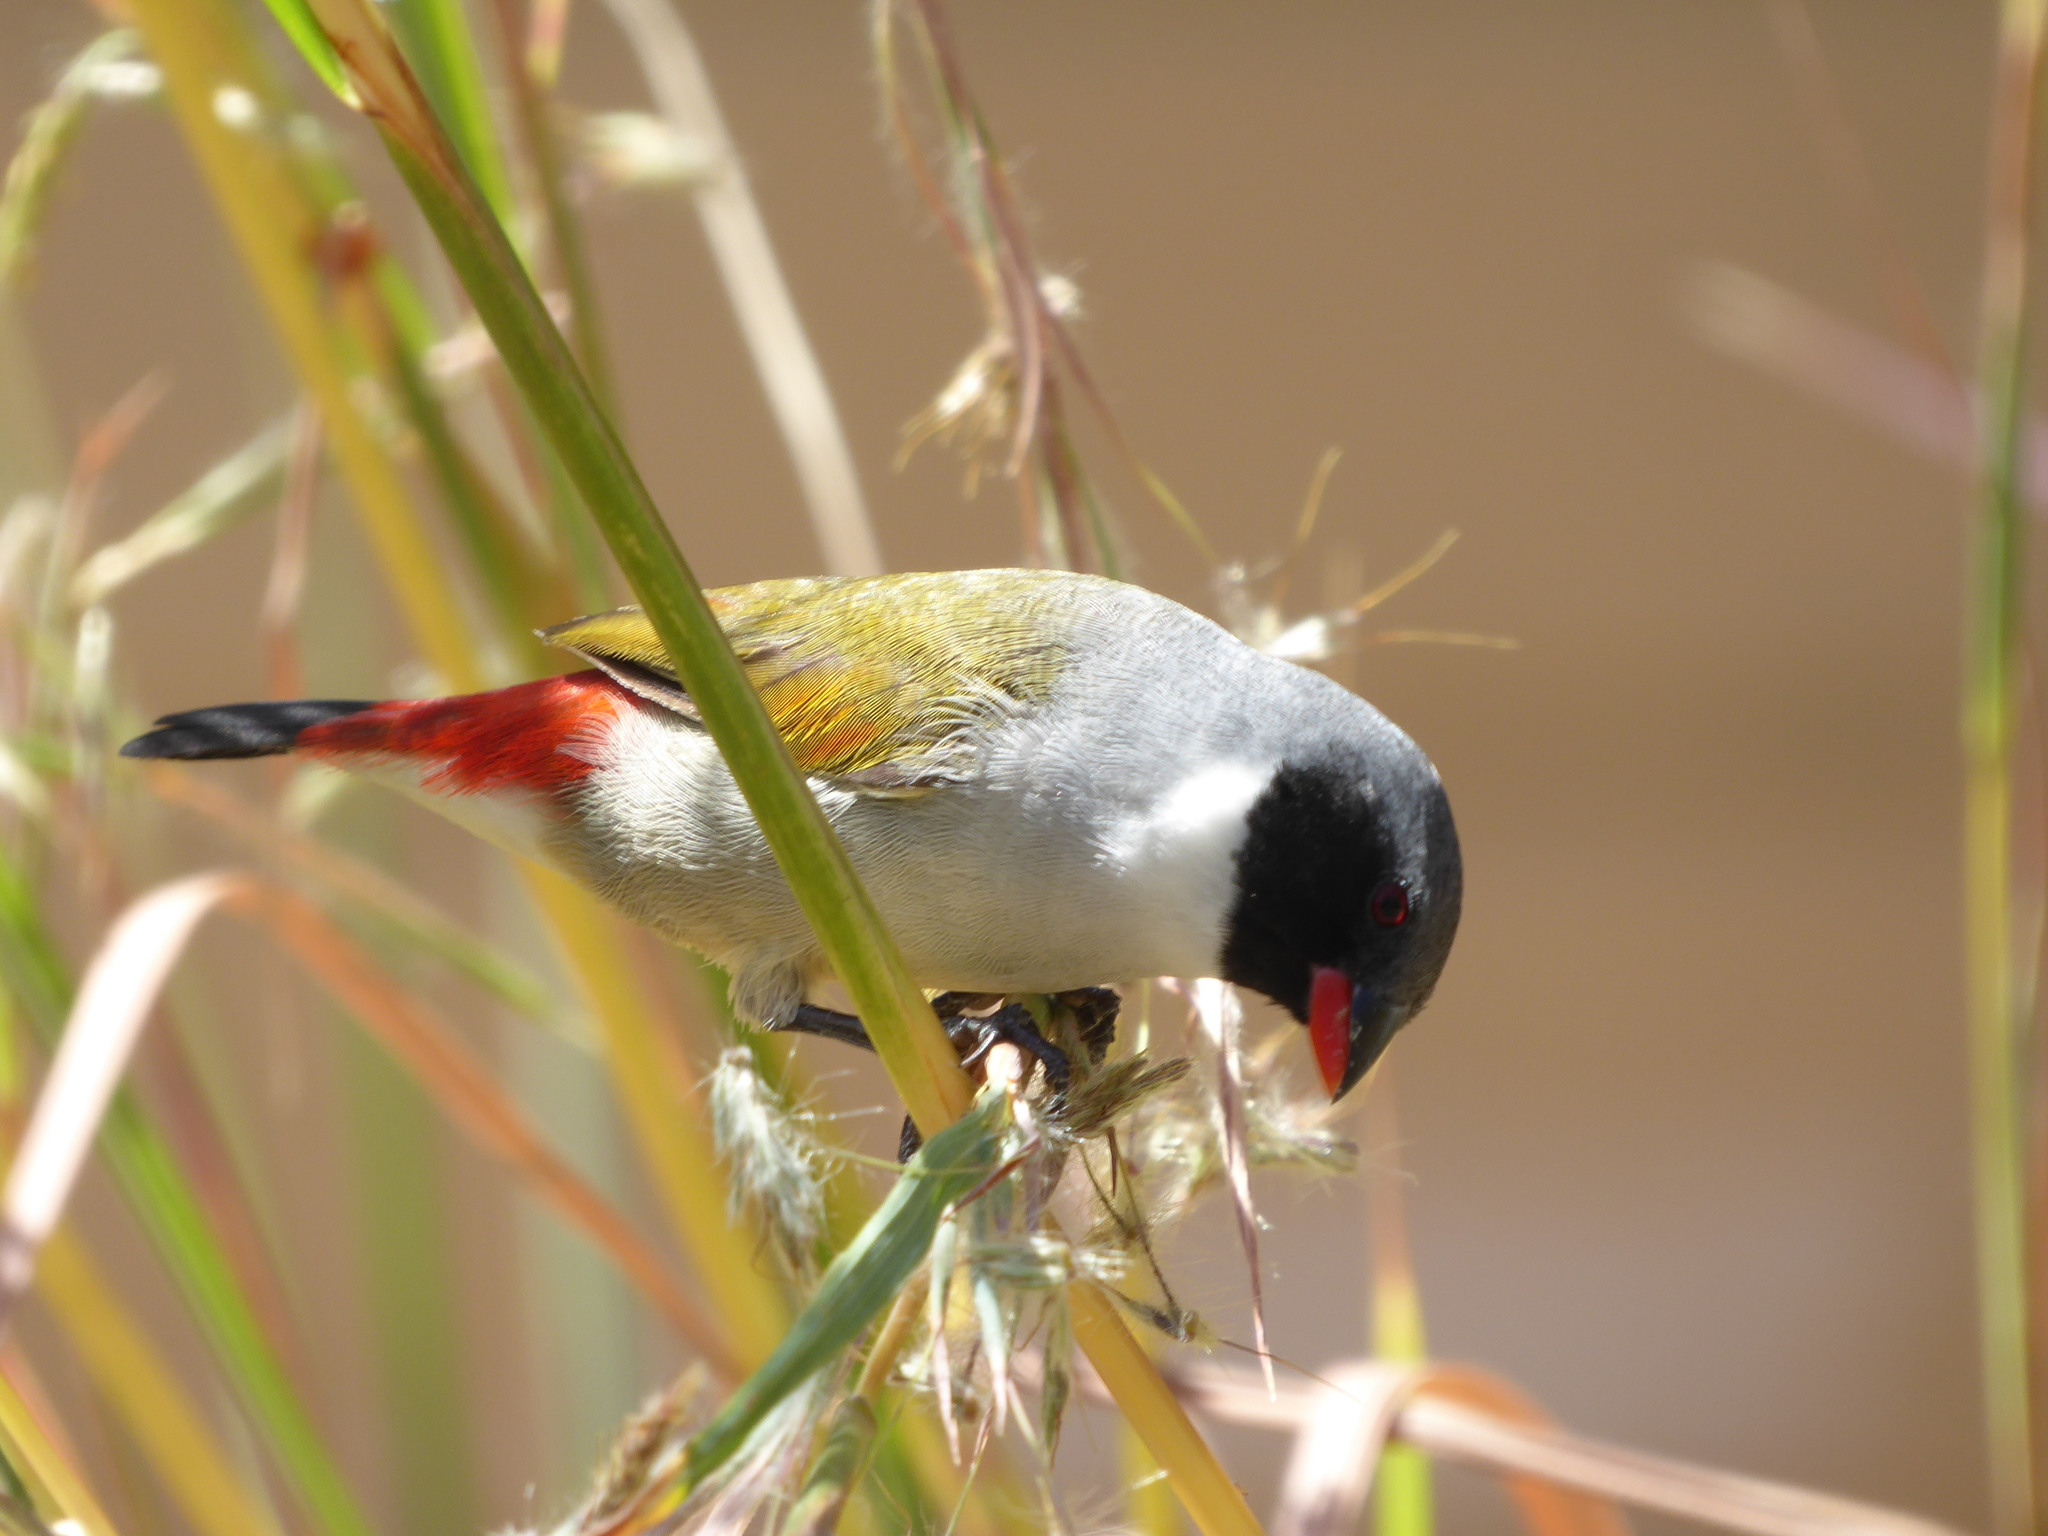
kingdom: Animalia
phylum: Chordata
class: Aves
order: Passeriformes
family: Estrildidae
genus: Coccopygia
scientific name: Coccopygia melanotis
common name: Swee waxbill
